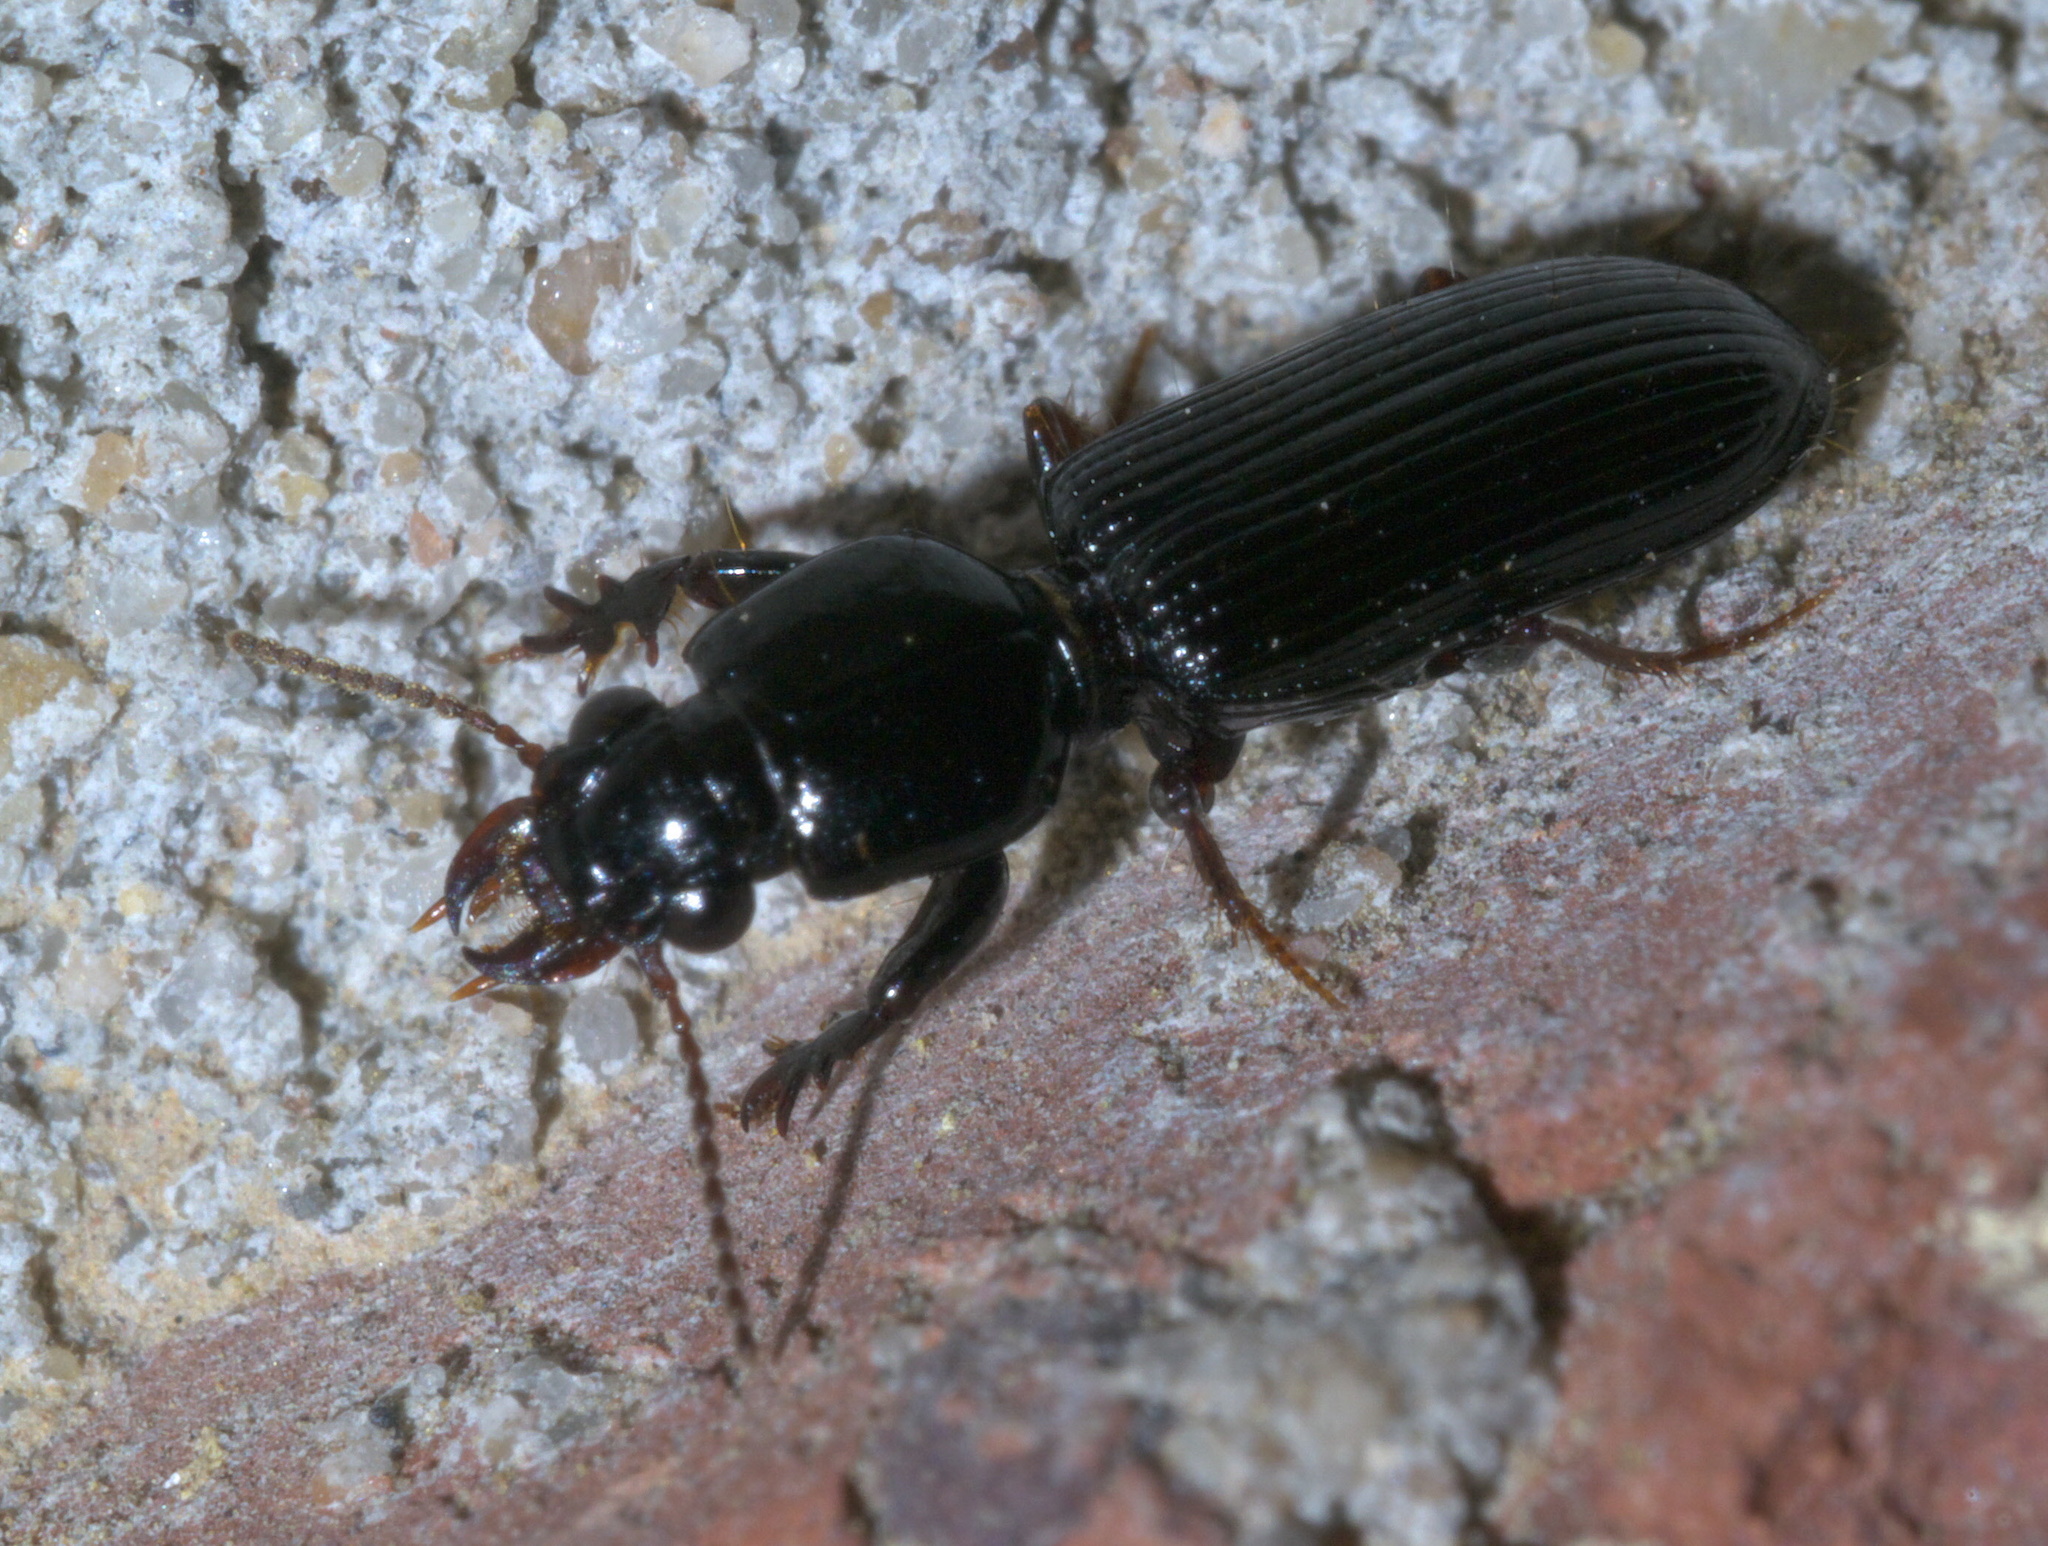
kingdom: Animalia
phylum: Arthropoda
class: Insecta
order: Coleoptera
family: Carabidae
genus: Semiclivina
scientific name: Semiclivina dentipes
